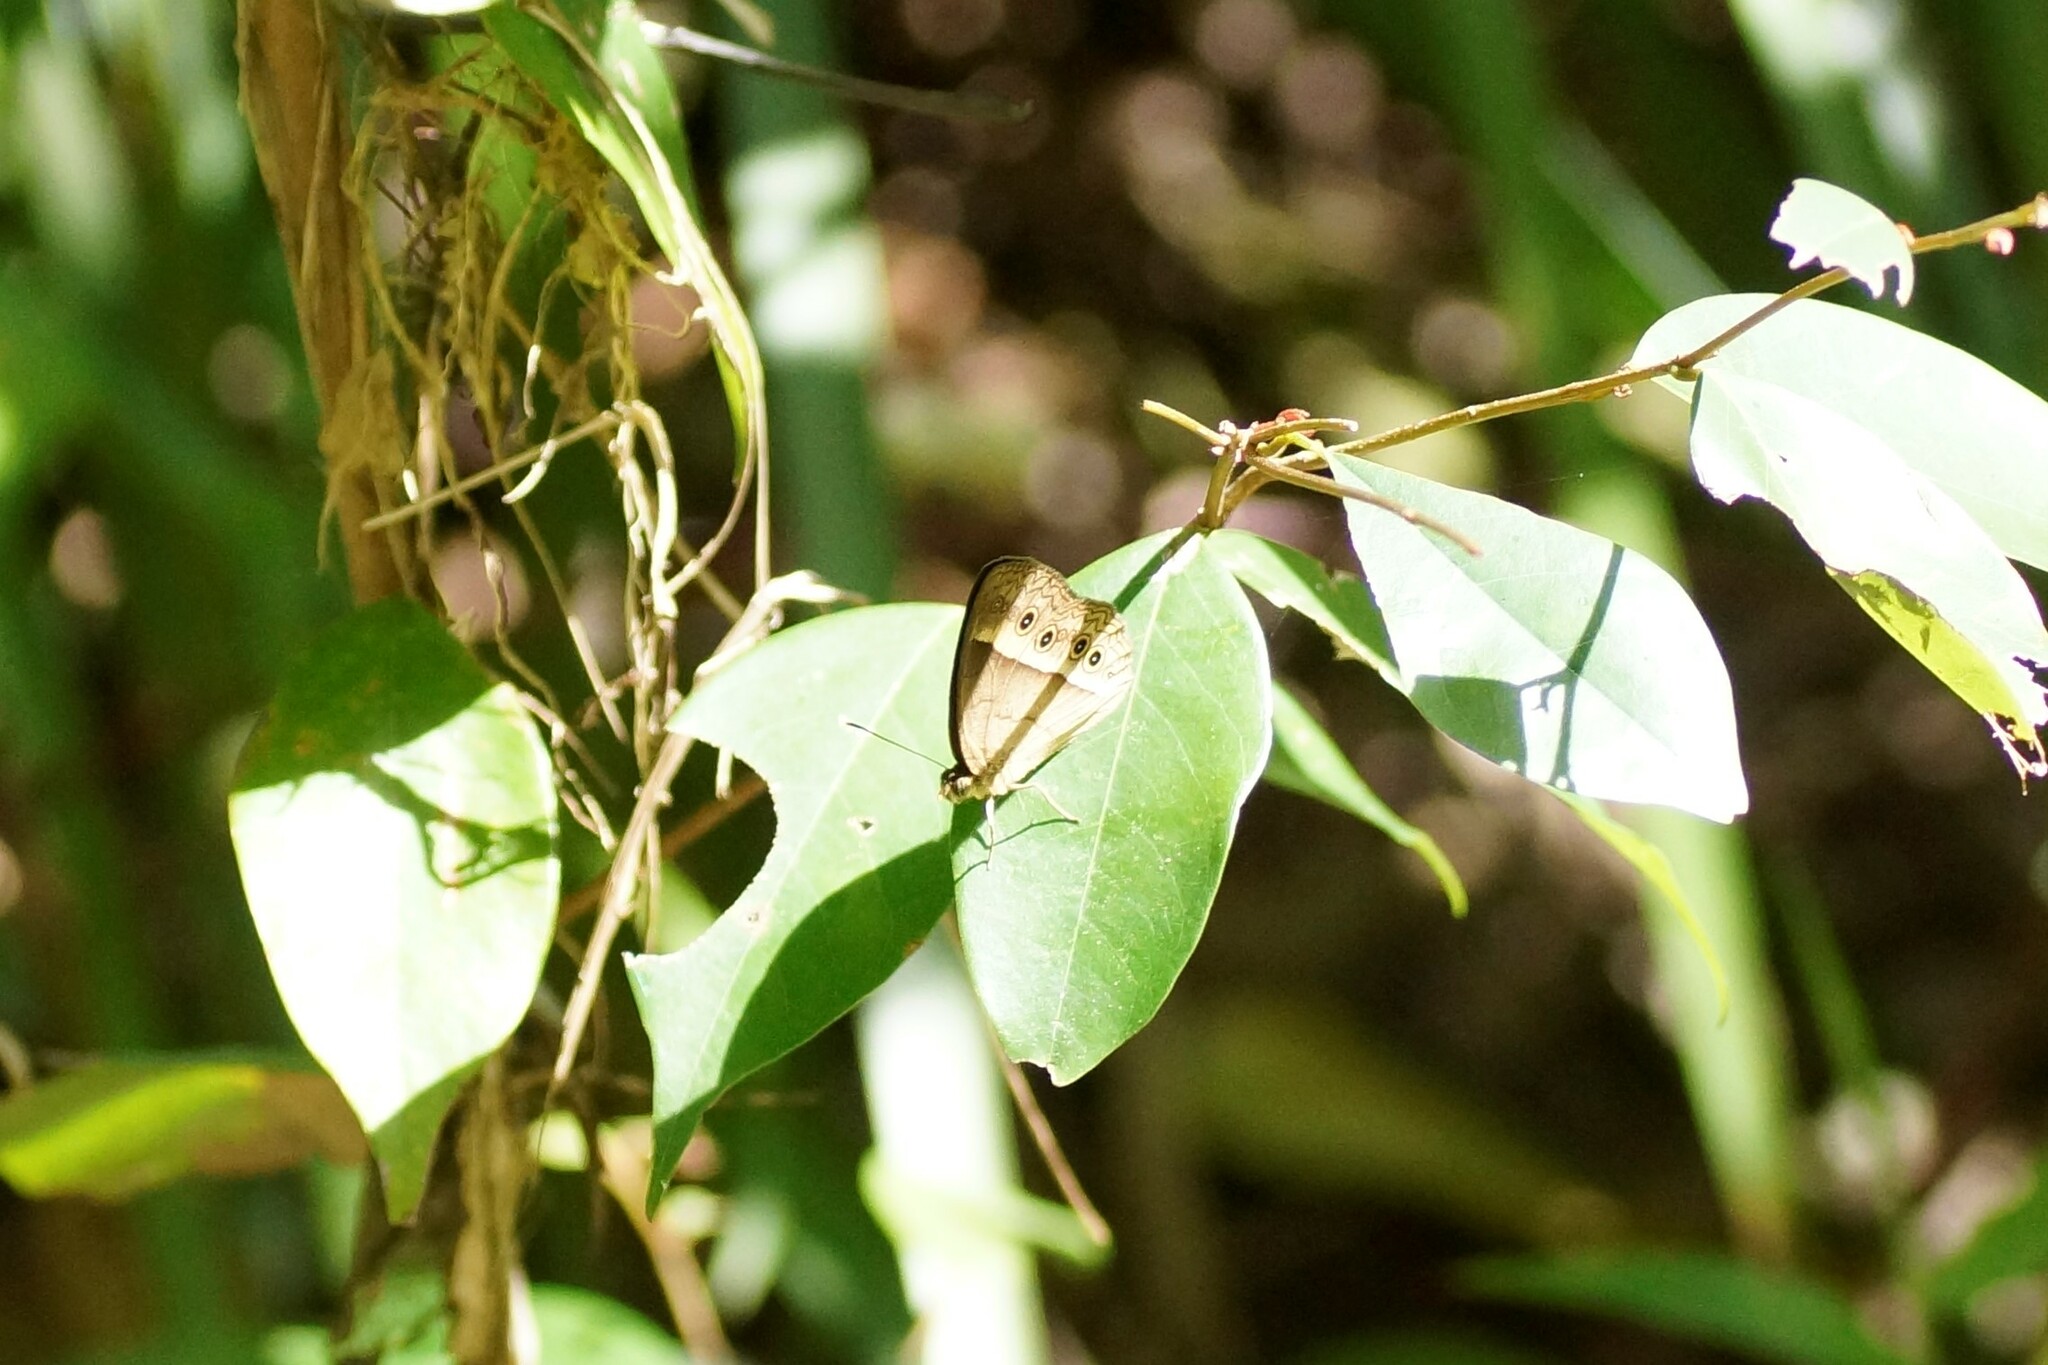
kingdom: Animalia
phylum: Arthropoda
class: Insecta
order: Lepidoptera
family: Nymphalidae
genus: Mycalesis
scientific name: Mycalesis perseus
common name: Dingy bushbrown
